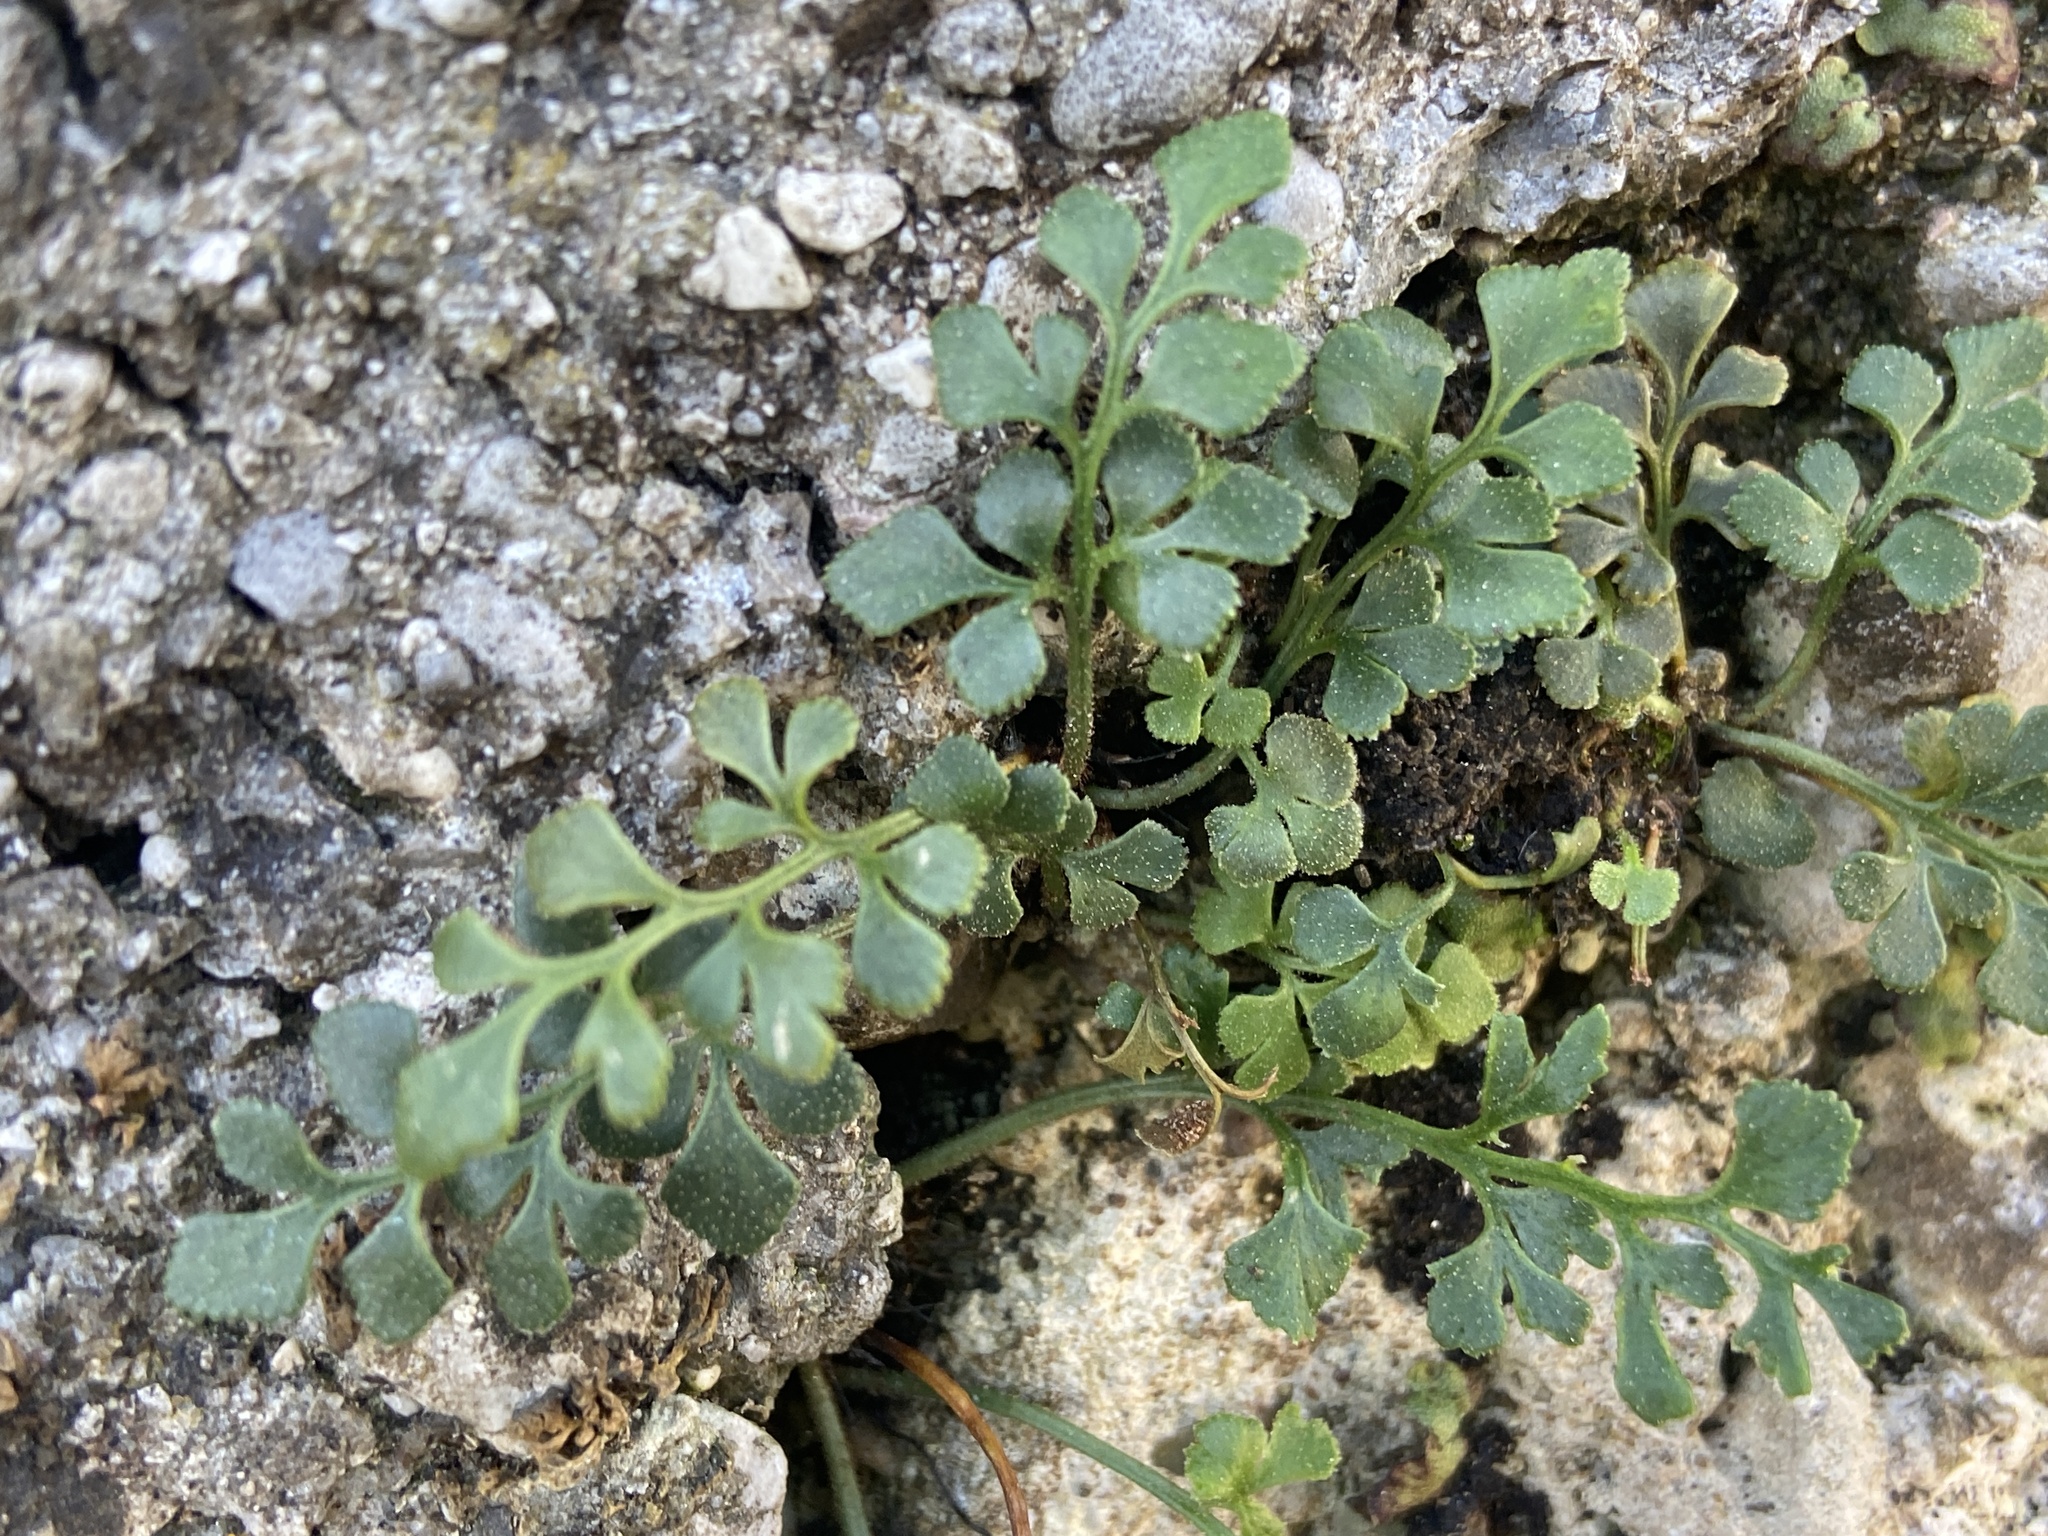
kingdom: Plantae
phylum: Tracheophyta
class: Polypodiopsida
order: Polypodiales
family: Aspleniaceae
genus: Asplenium
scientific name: Asplenium ruta-muraria
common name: Wall-rue
